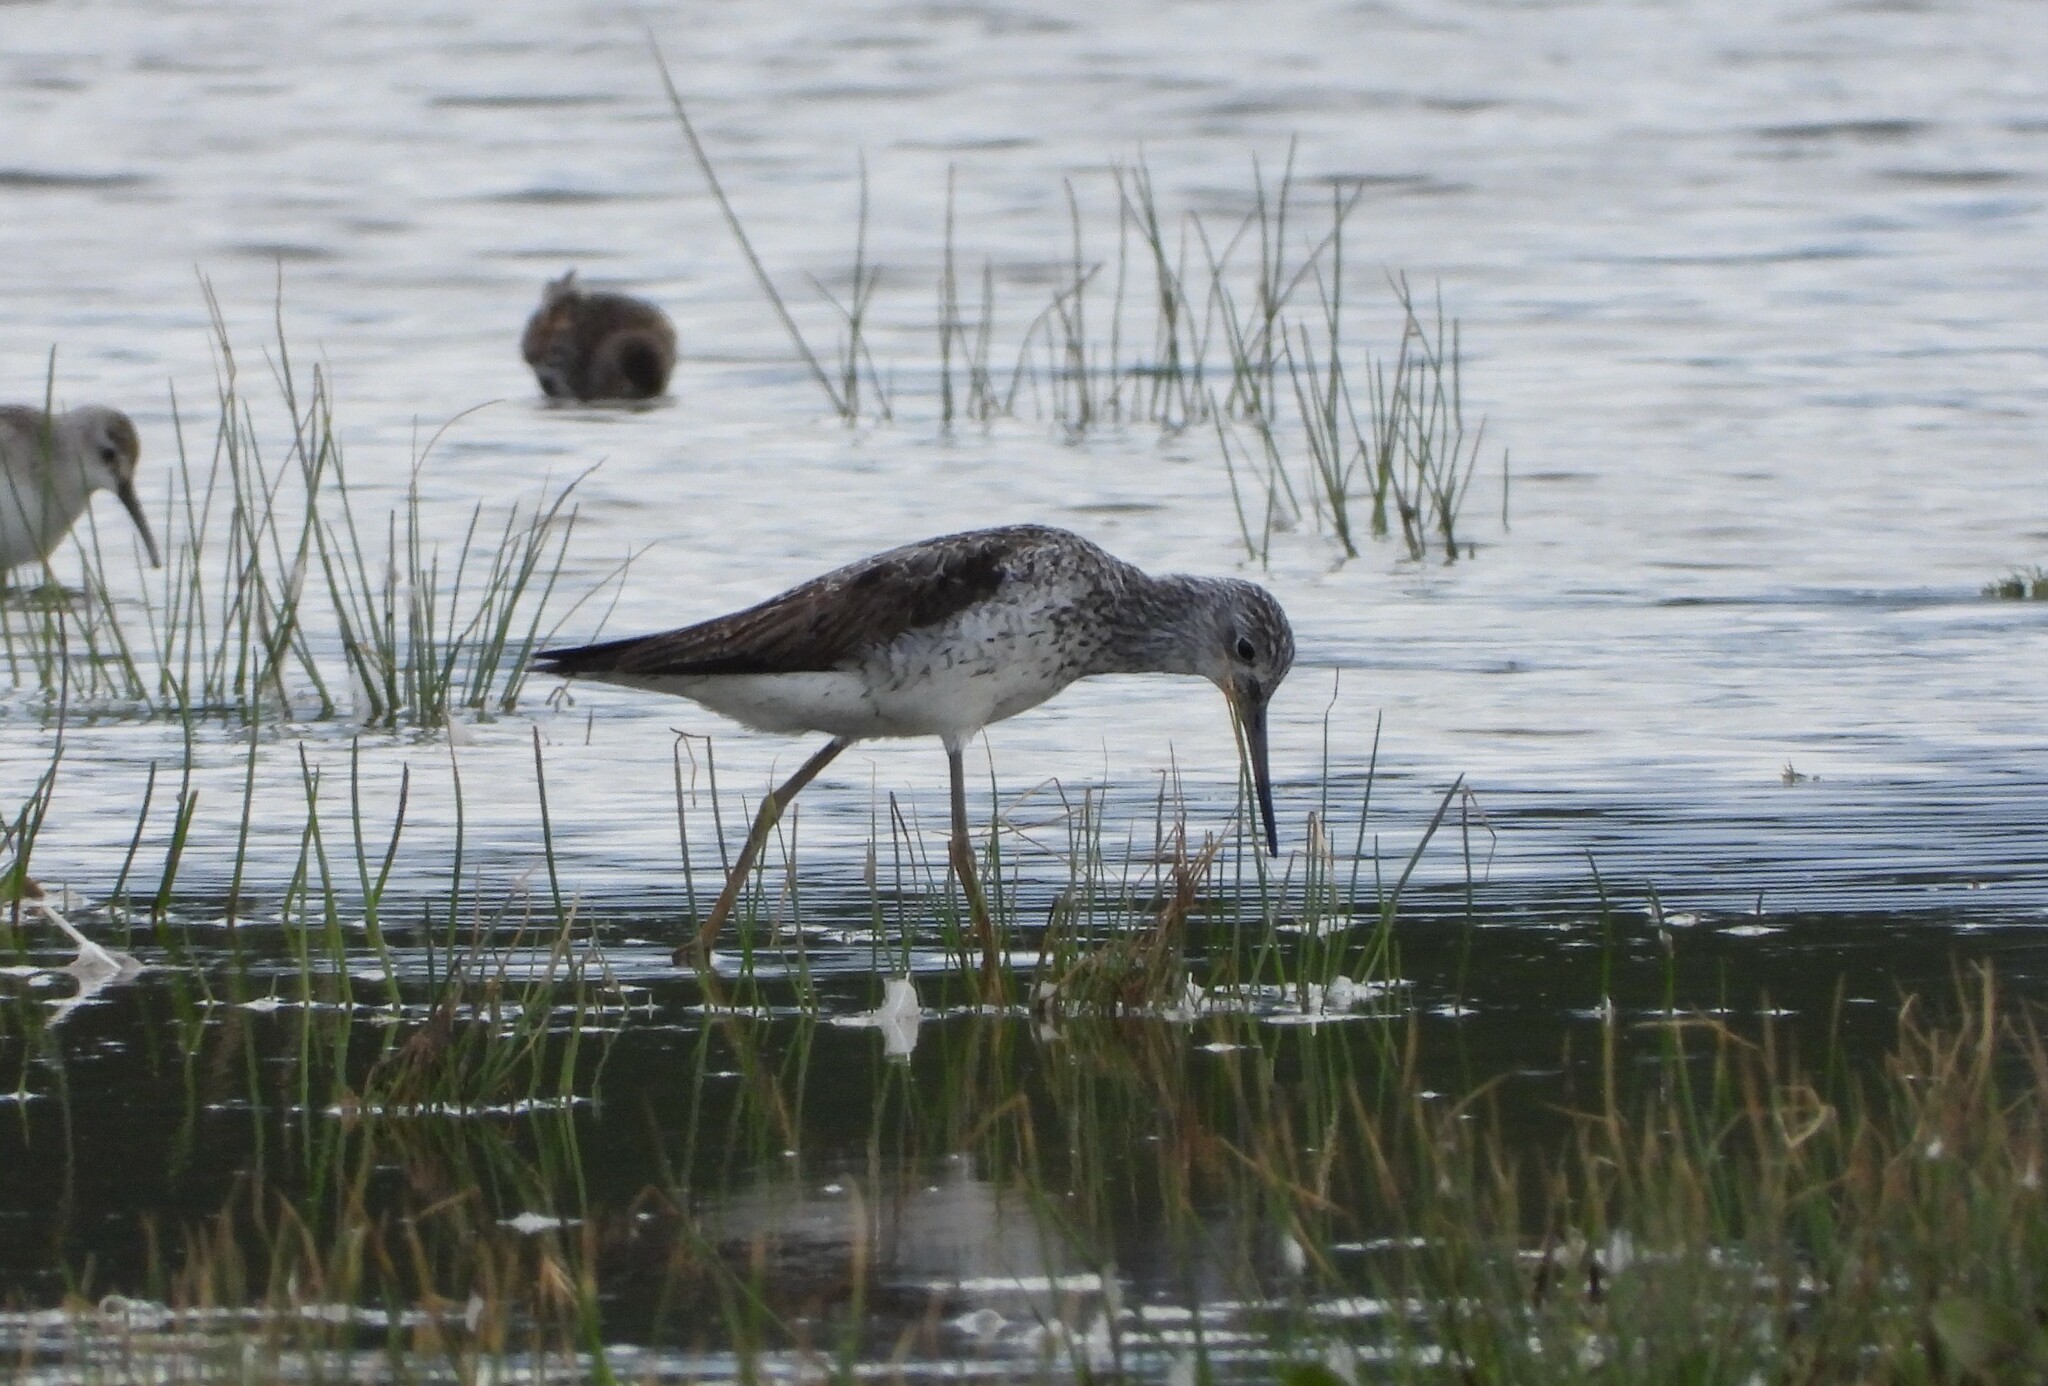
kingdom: Animalia
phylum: Chordata
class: Aves
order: Charadriiformes
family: Scolopacidae
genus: Tringa
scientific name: Tringa nebularia
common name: Common greenshank
